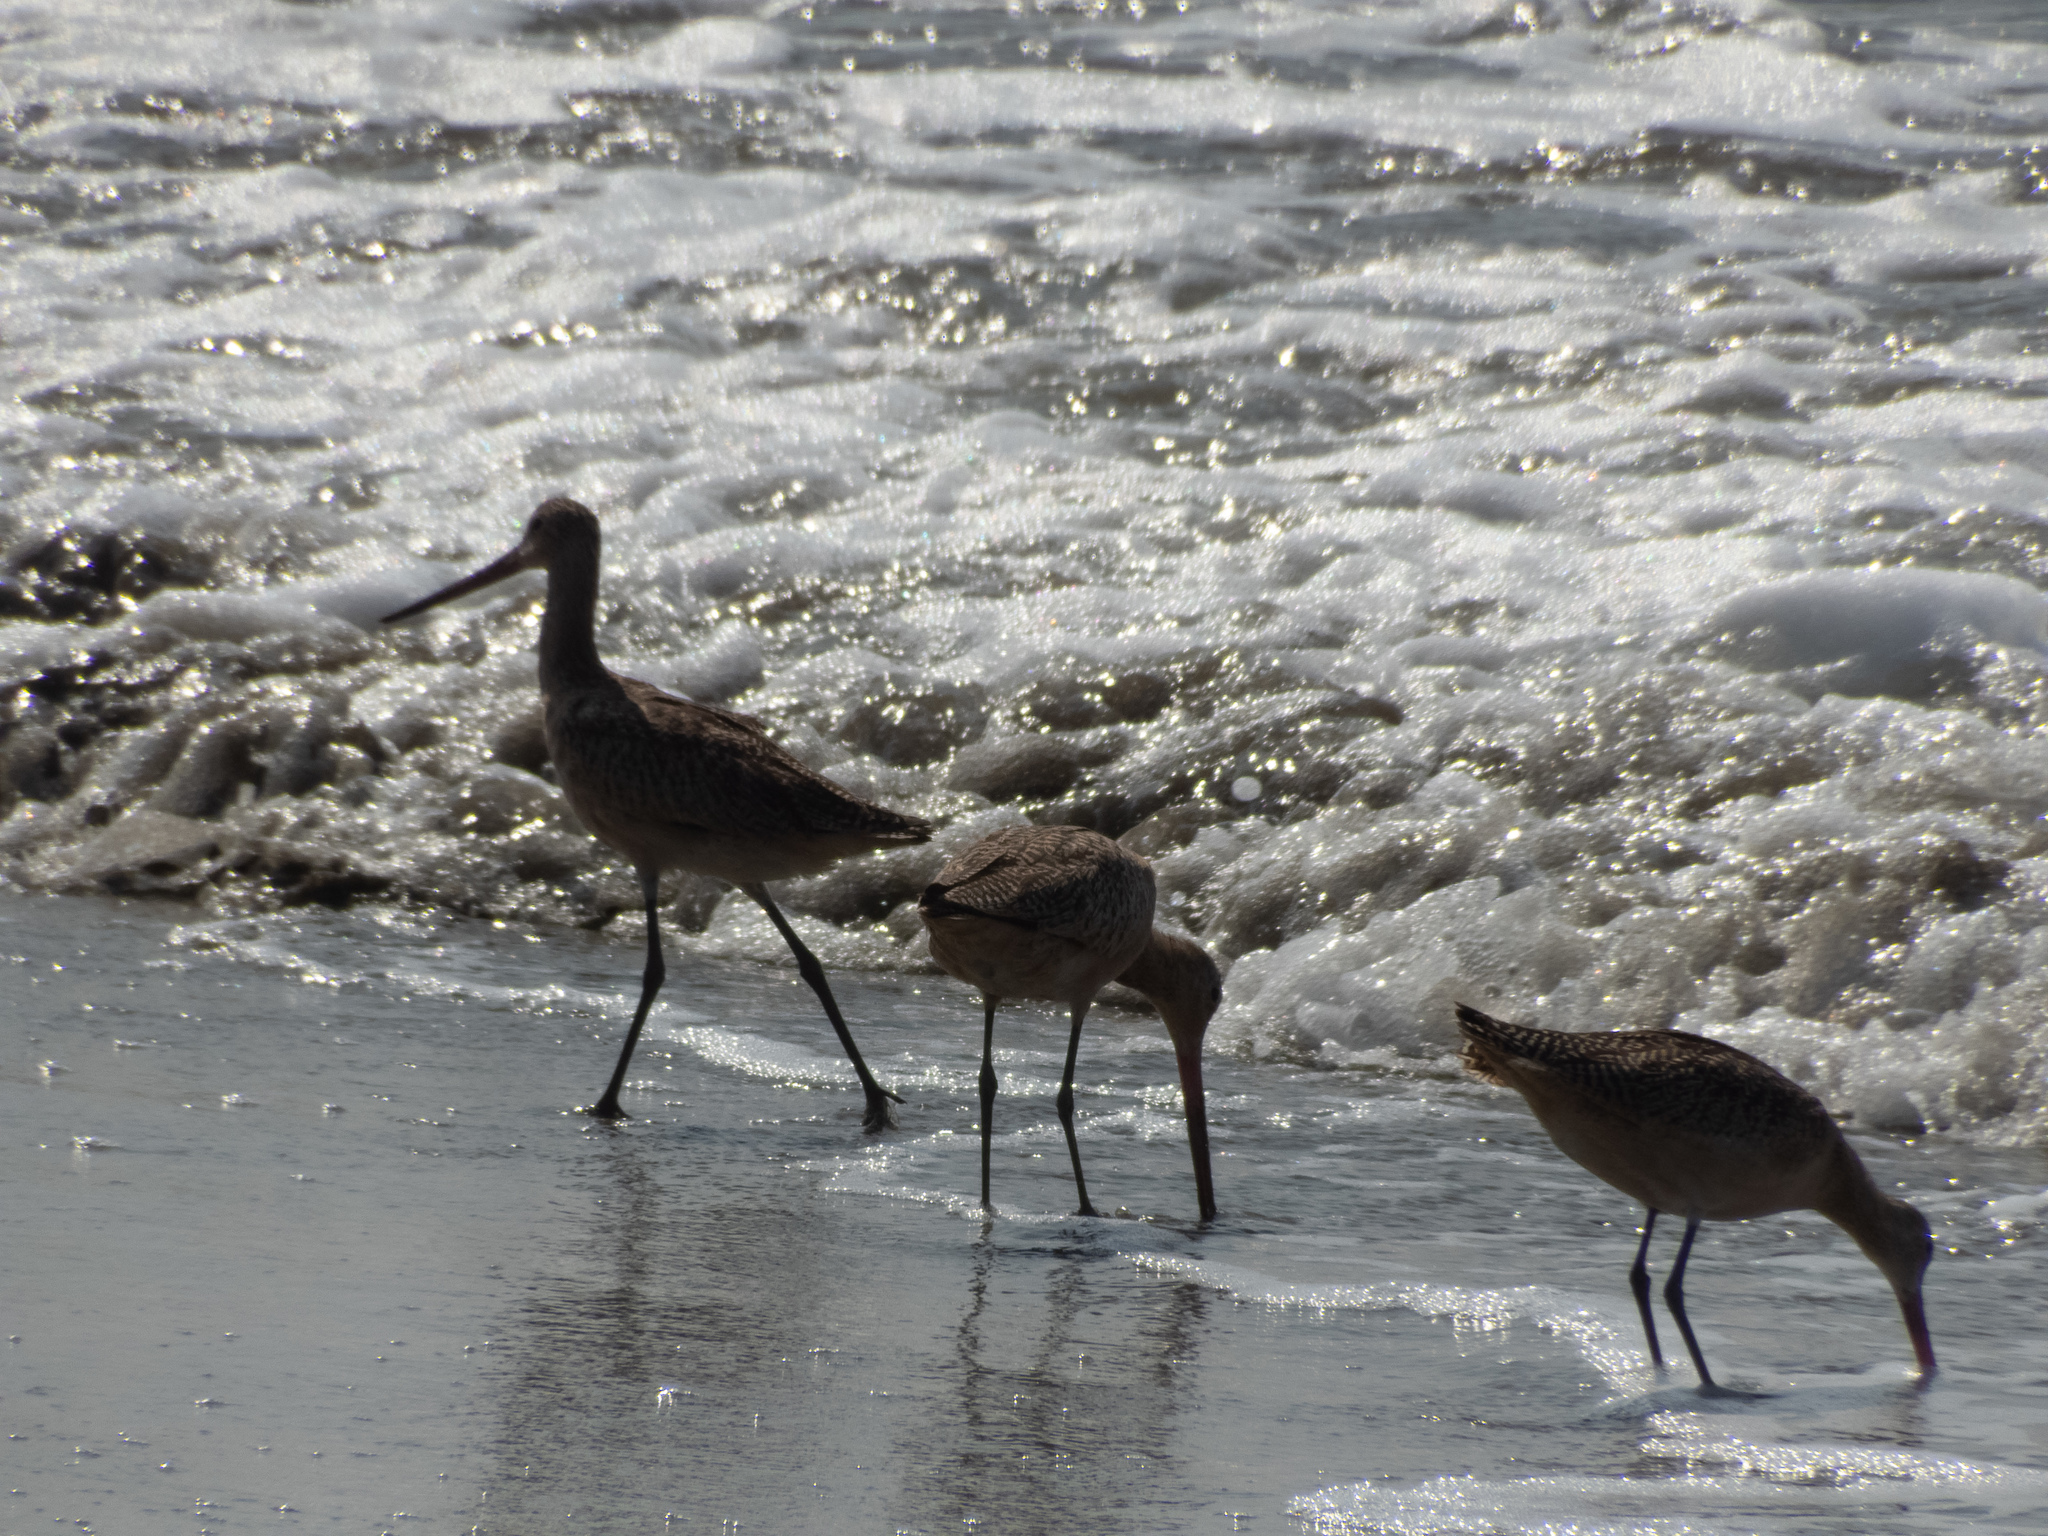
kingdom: Animalia
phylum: Chordata
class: Aves
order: Charadriiformes
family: Scolopacidae
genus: Limosa
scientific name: Limosa fedoa
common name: Marbled godwit
